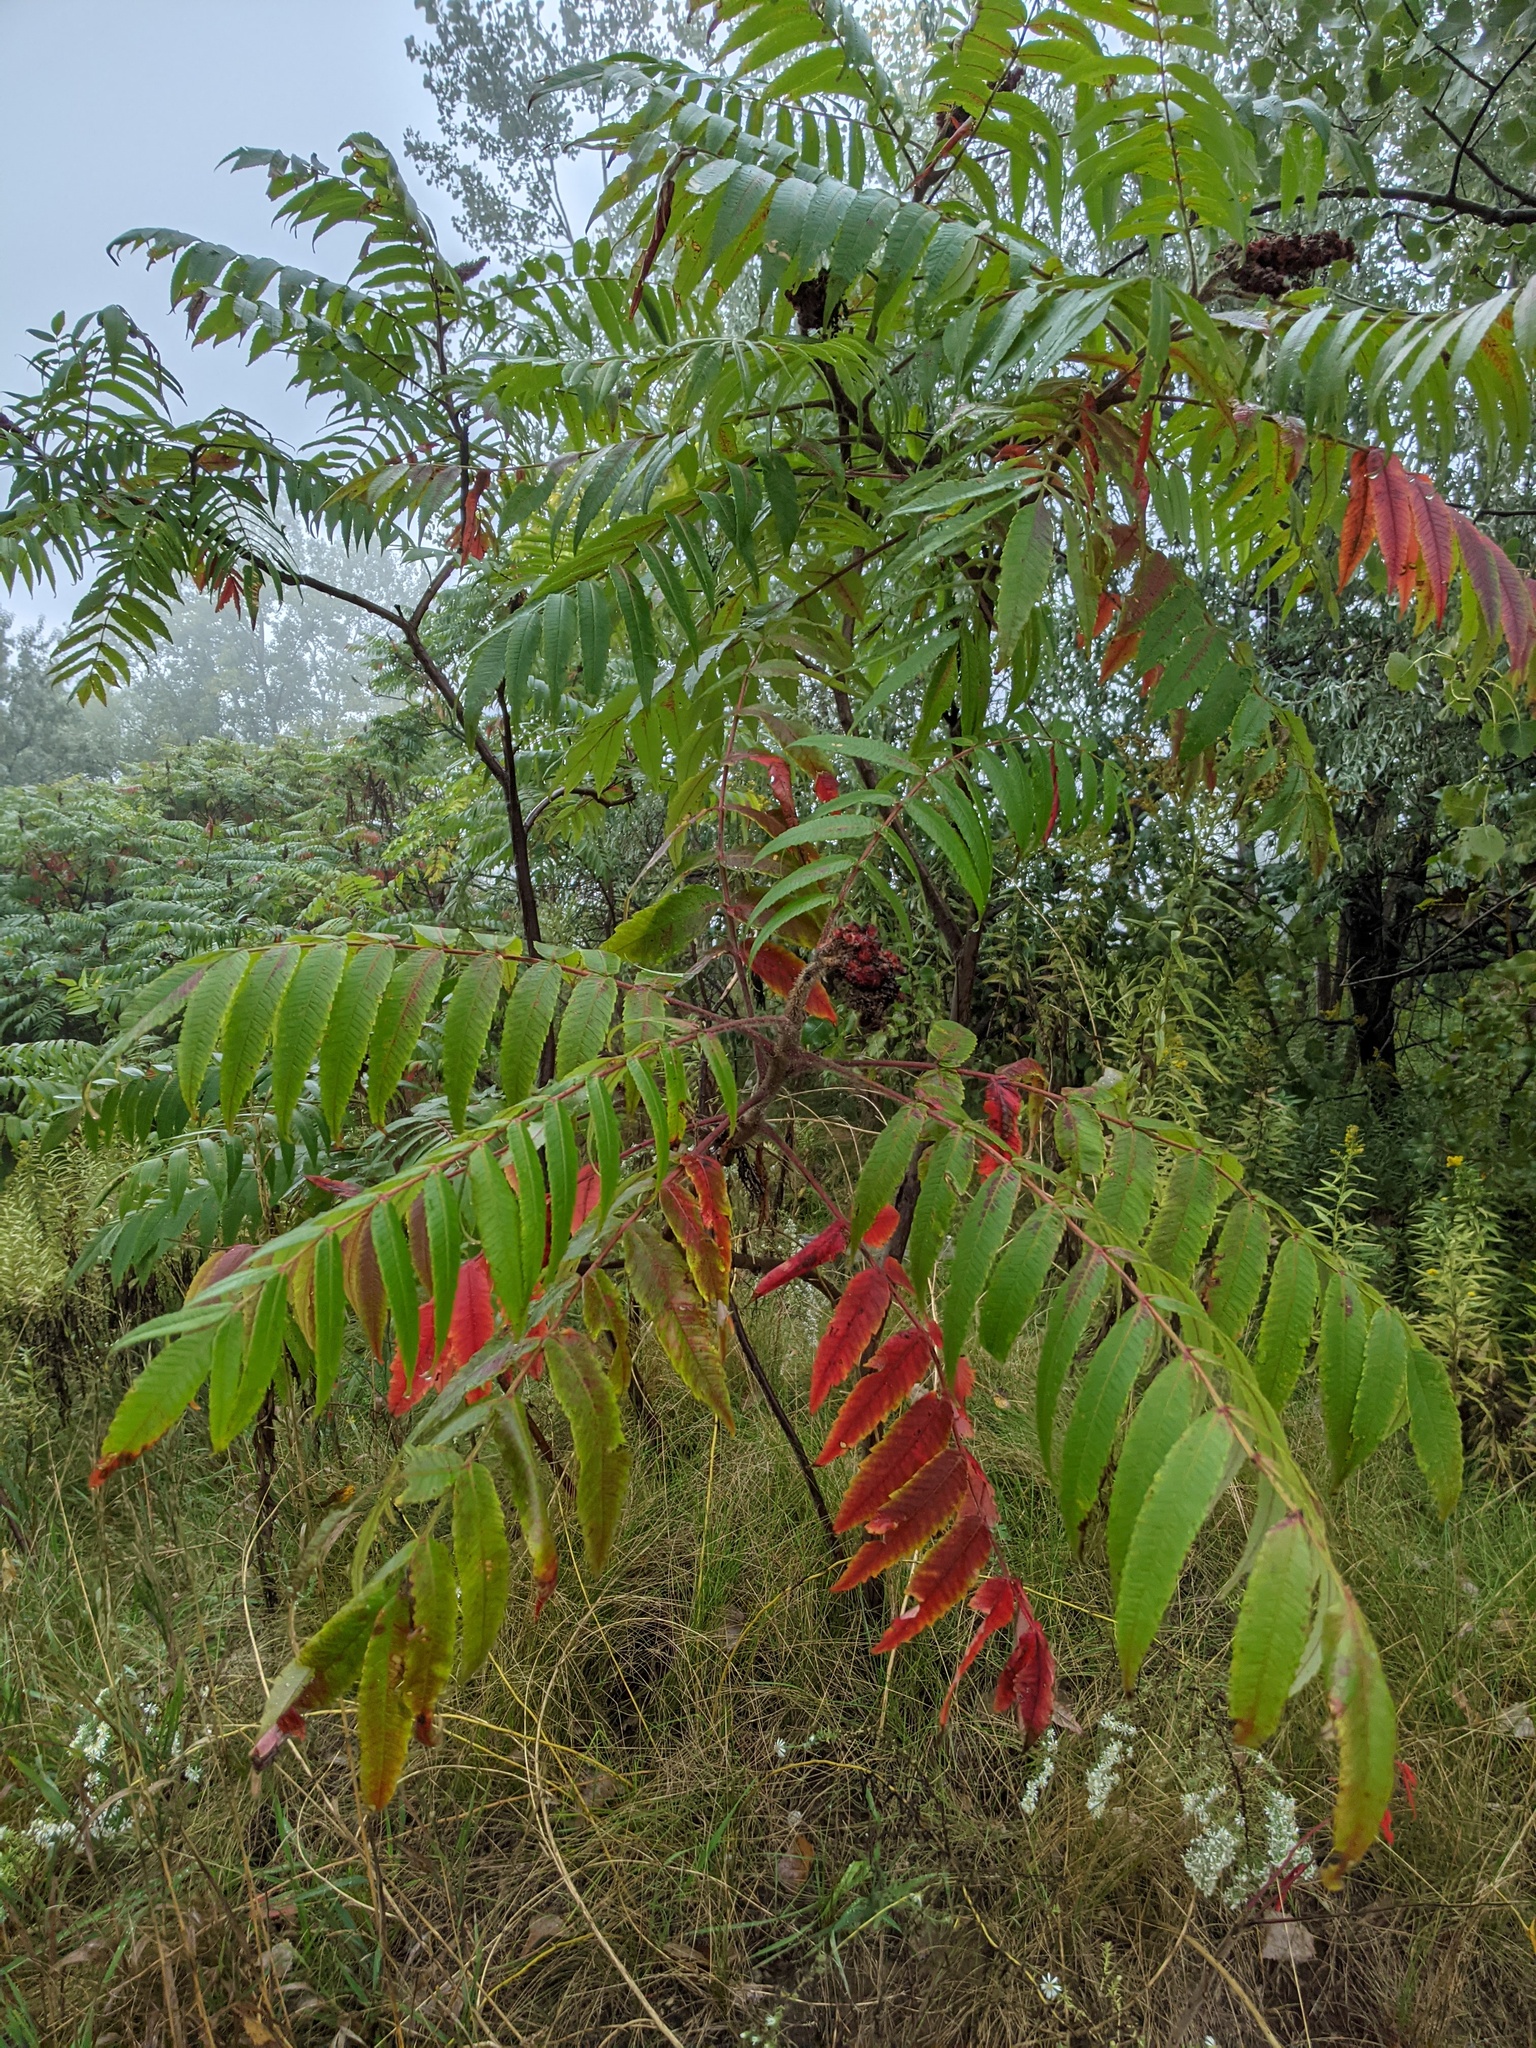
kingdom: Plantae
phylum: Tracheophyta
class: Magnoliopsida
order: Sapindales
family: Anacardiaceae
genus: Rhus
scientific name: Rhus typhina
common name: Staghorn sumac
